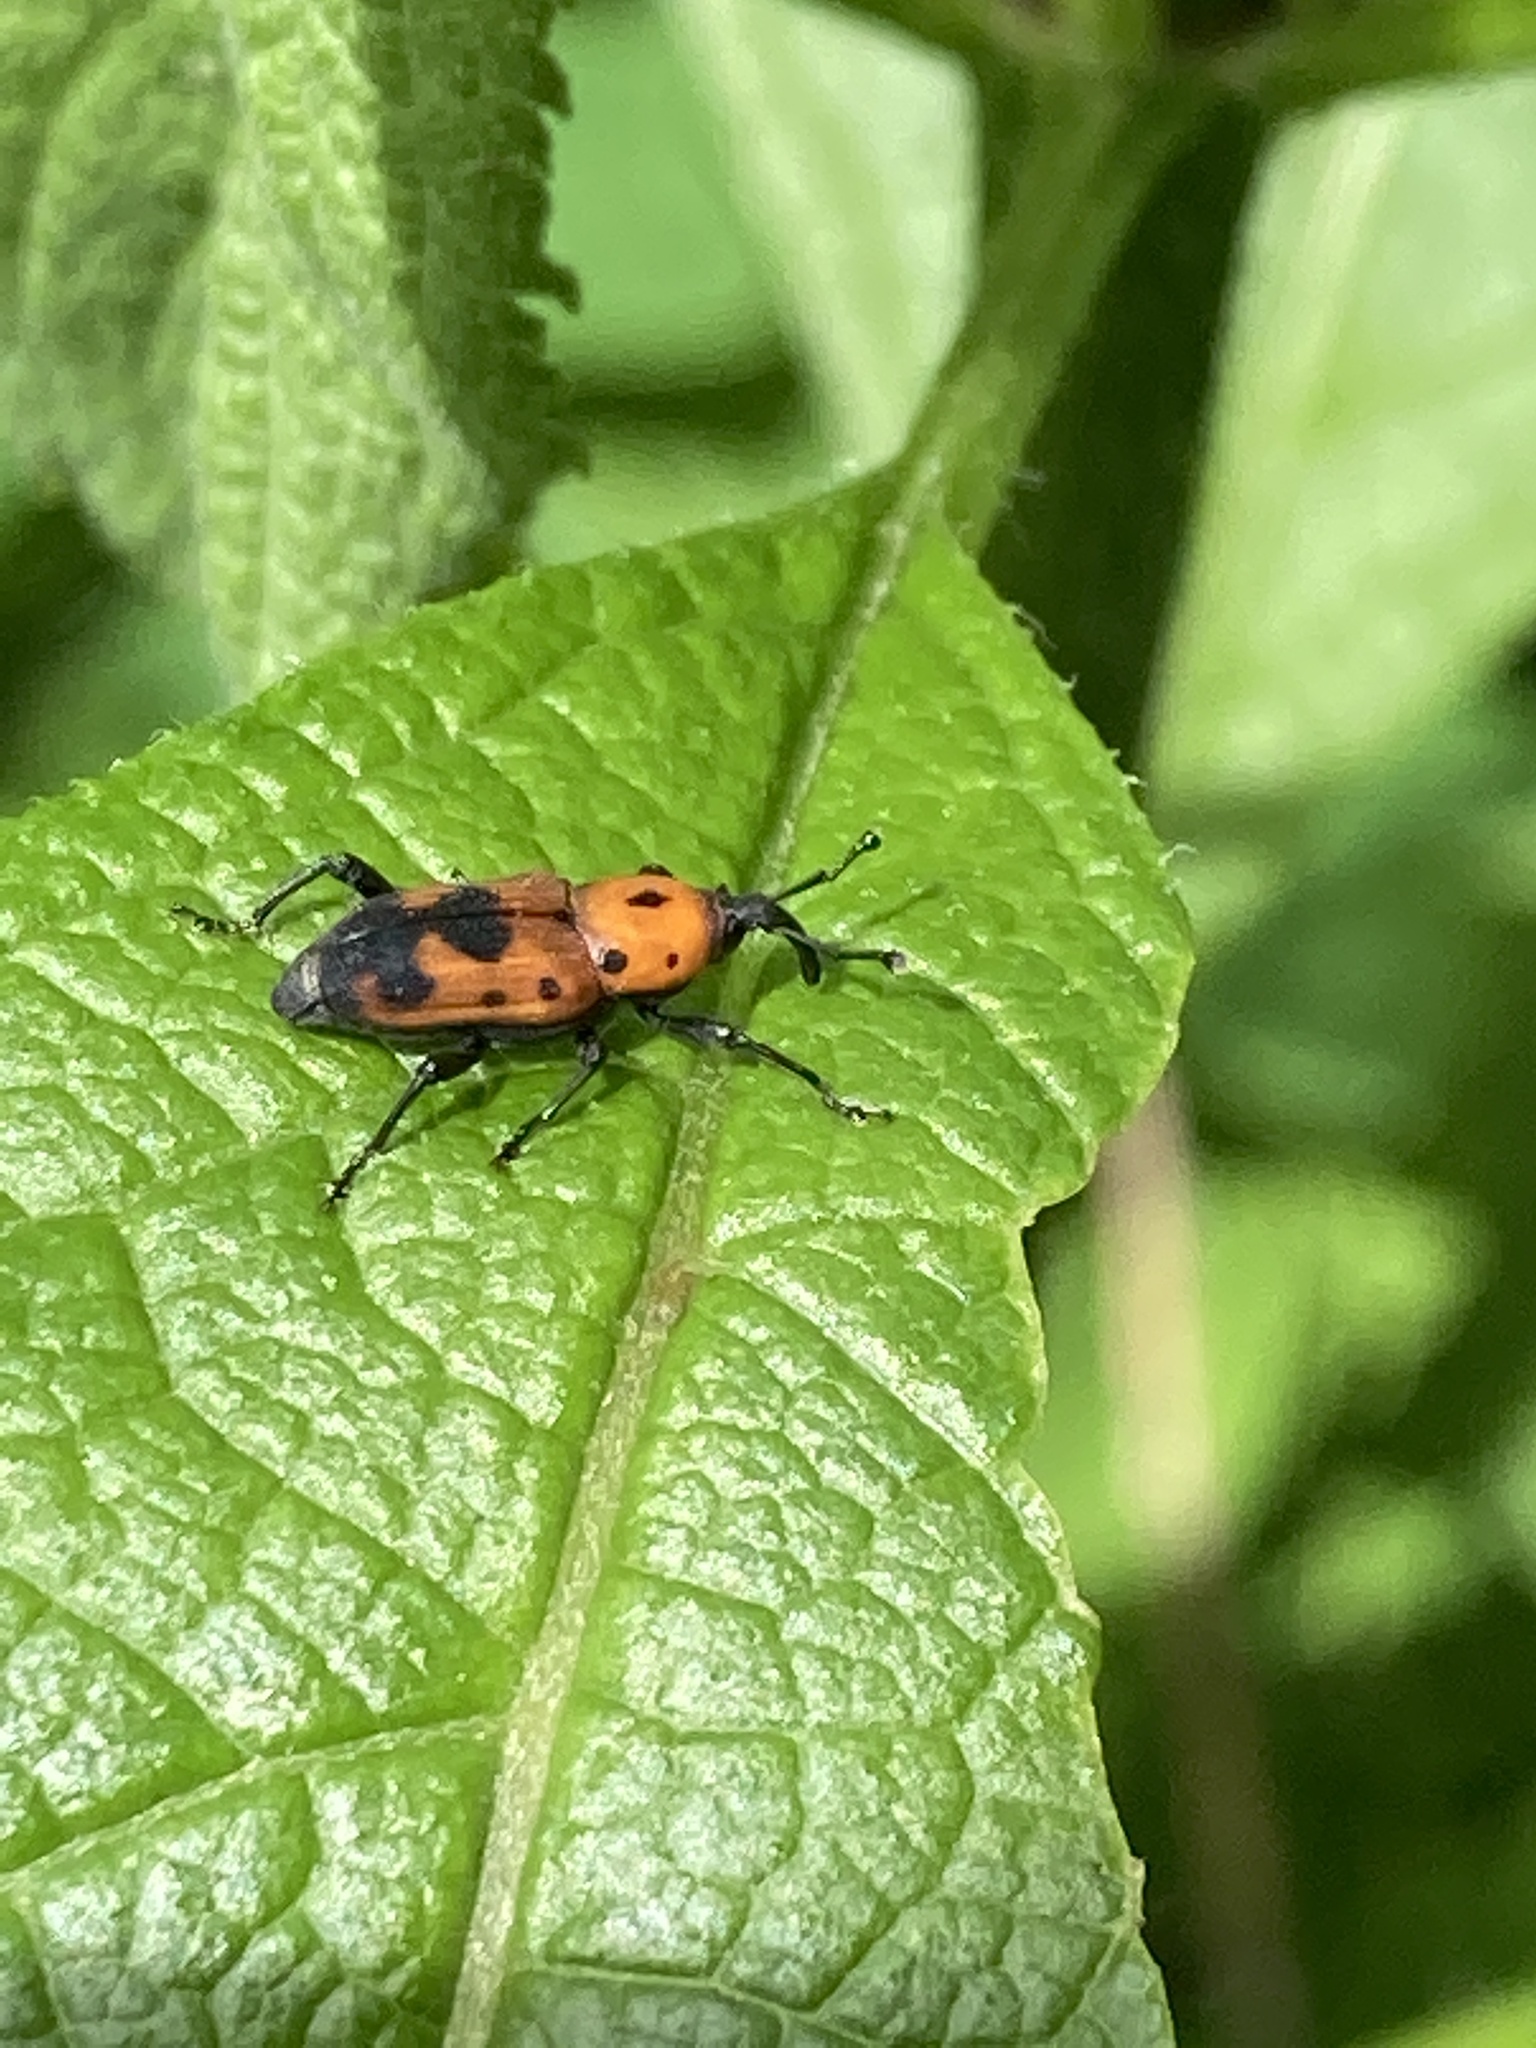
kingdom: Animalia
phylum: Arthropoda
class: Insecta
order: Coleoptera
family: Dryophthoridae
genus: Rhodobaenus
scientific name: Rhodobaenus quinquepunctatus
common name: Cocklebur weevil
